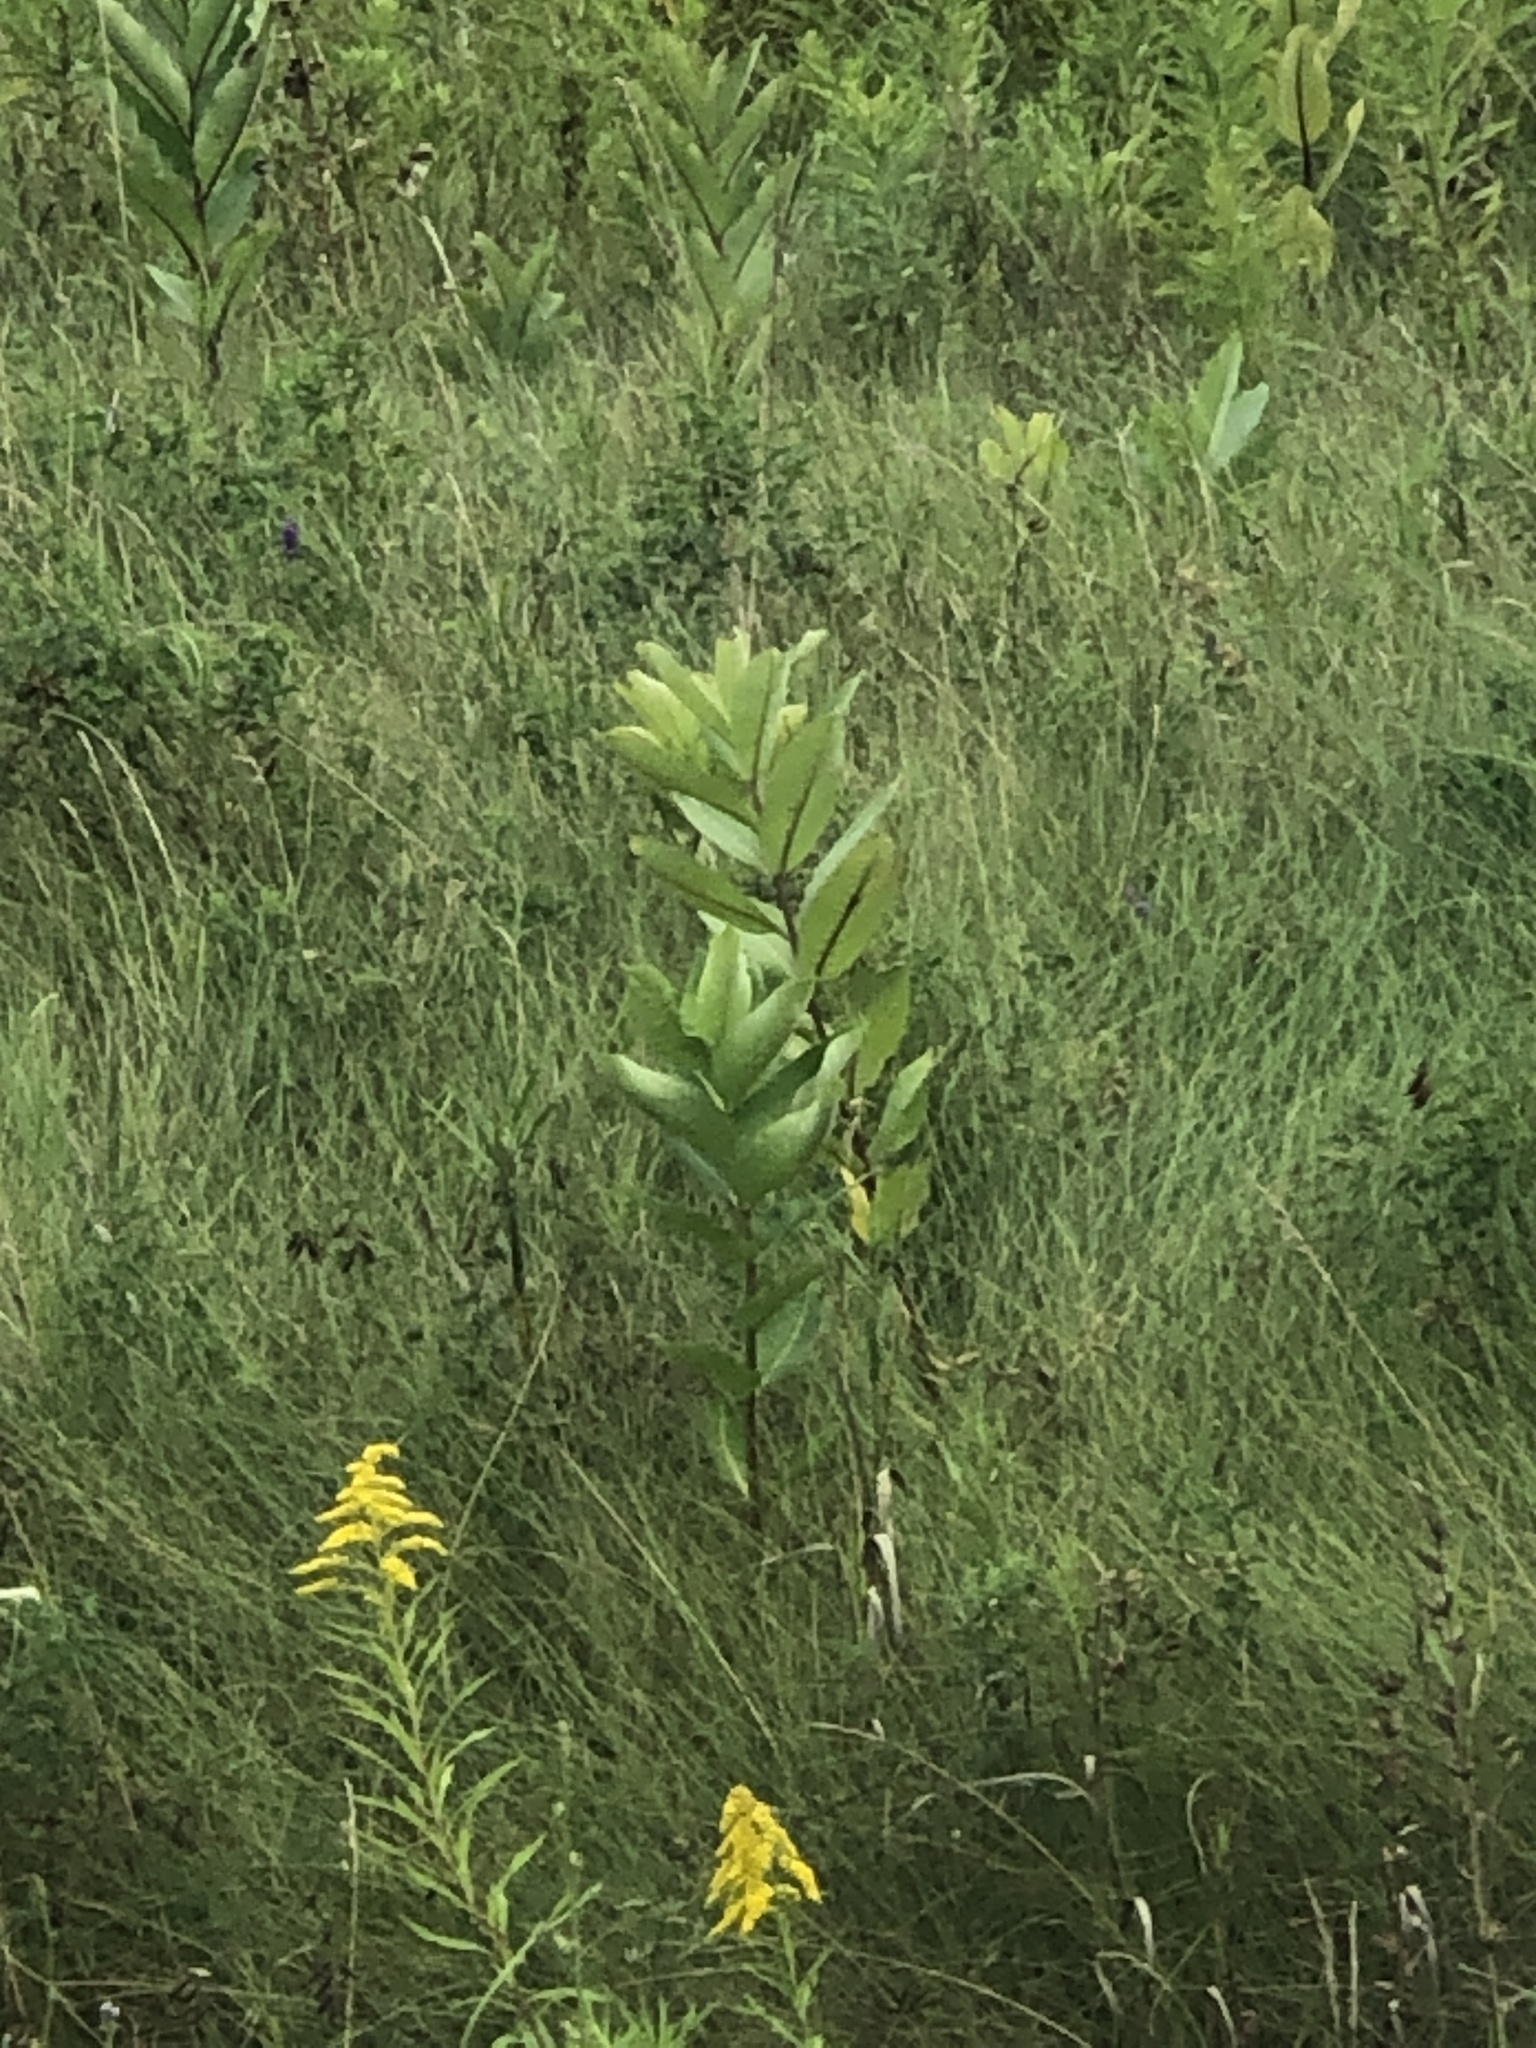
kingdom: Plantae
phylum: Tracheophyta
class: Magnoliopsida
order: Gentianales
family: Apocynaceae
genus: Asclepias
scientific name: Asclepias syriaca
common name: Common milkweed
